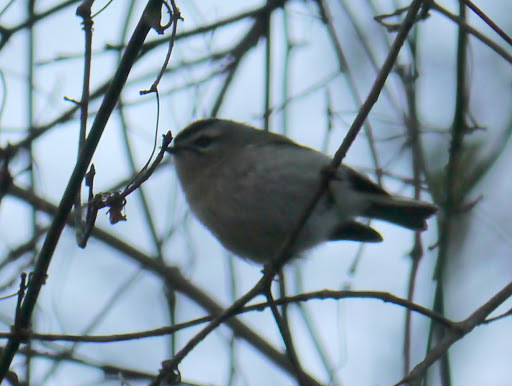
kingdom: Animalia
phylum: Chordata
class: Aves
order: Passeriformes
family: Regulidae
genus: Regulus
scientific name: Regulus satrapa
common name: Golden-crowned kinglet
